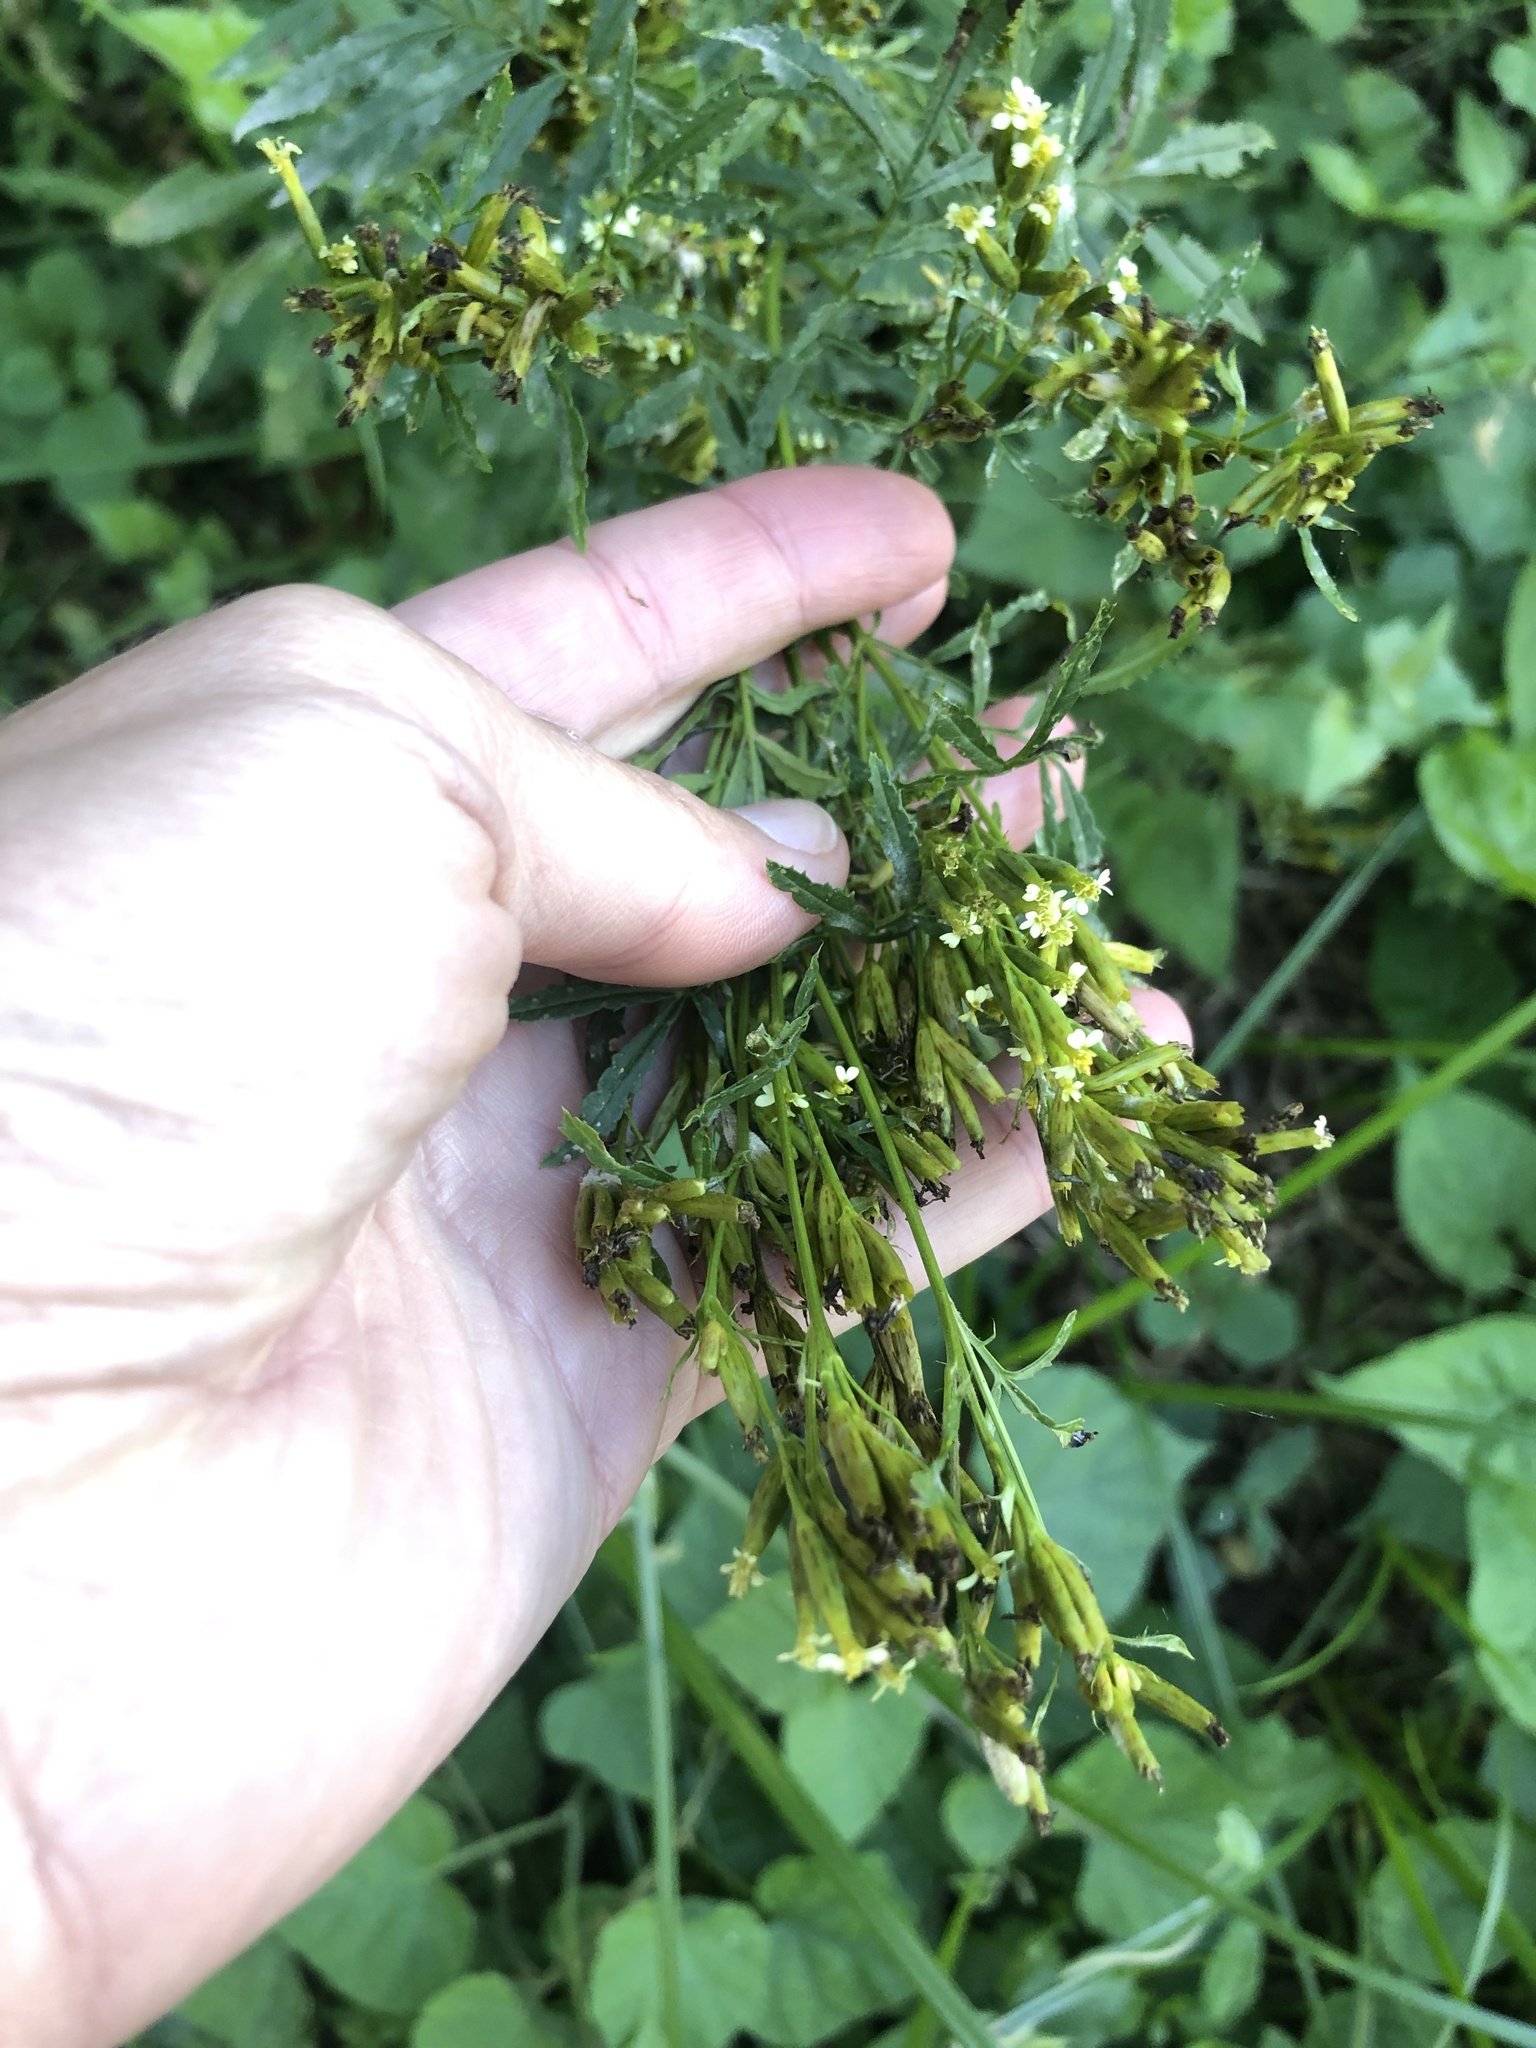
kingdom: Plantae
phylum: Tracheophyta
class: Magnoliopsida
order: Asterales
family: Asteraceae
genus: Tagetes
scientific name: Tagetes minuta
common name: Muster john henry
